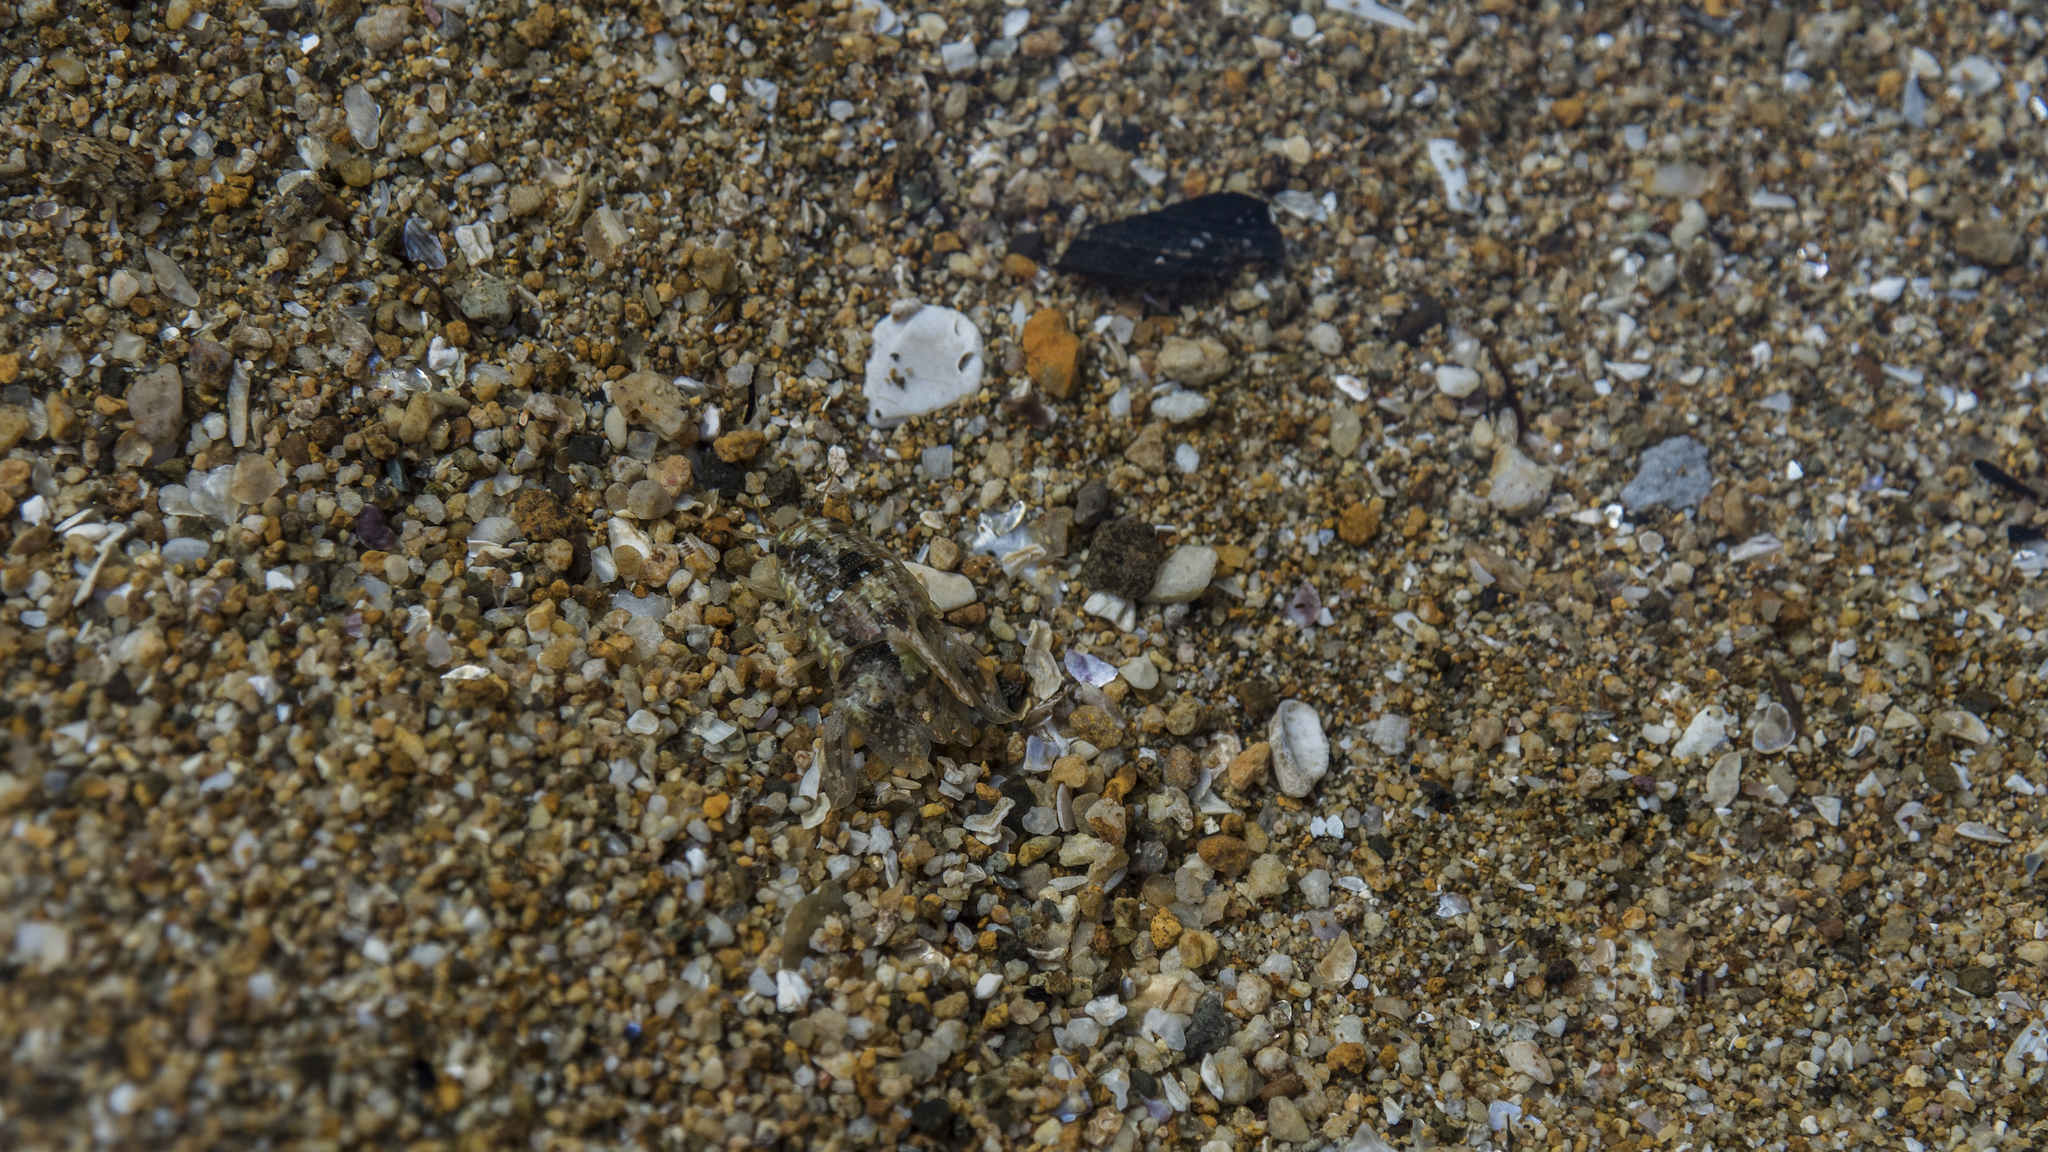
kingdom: Animalia
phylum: Arthropoda
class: Malacostraca
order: Isopoda
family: Sphaeromatidae
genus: Isocladus
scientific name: Isocladus armatus
